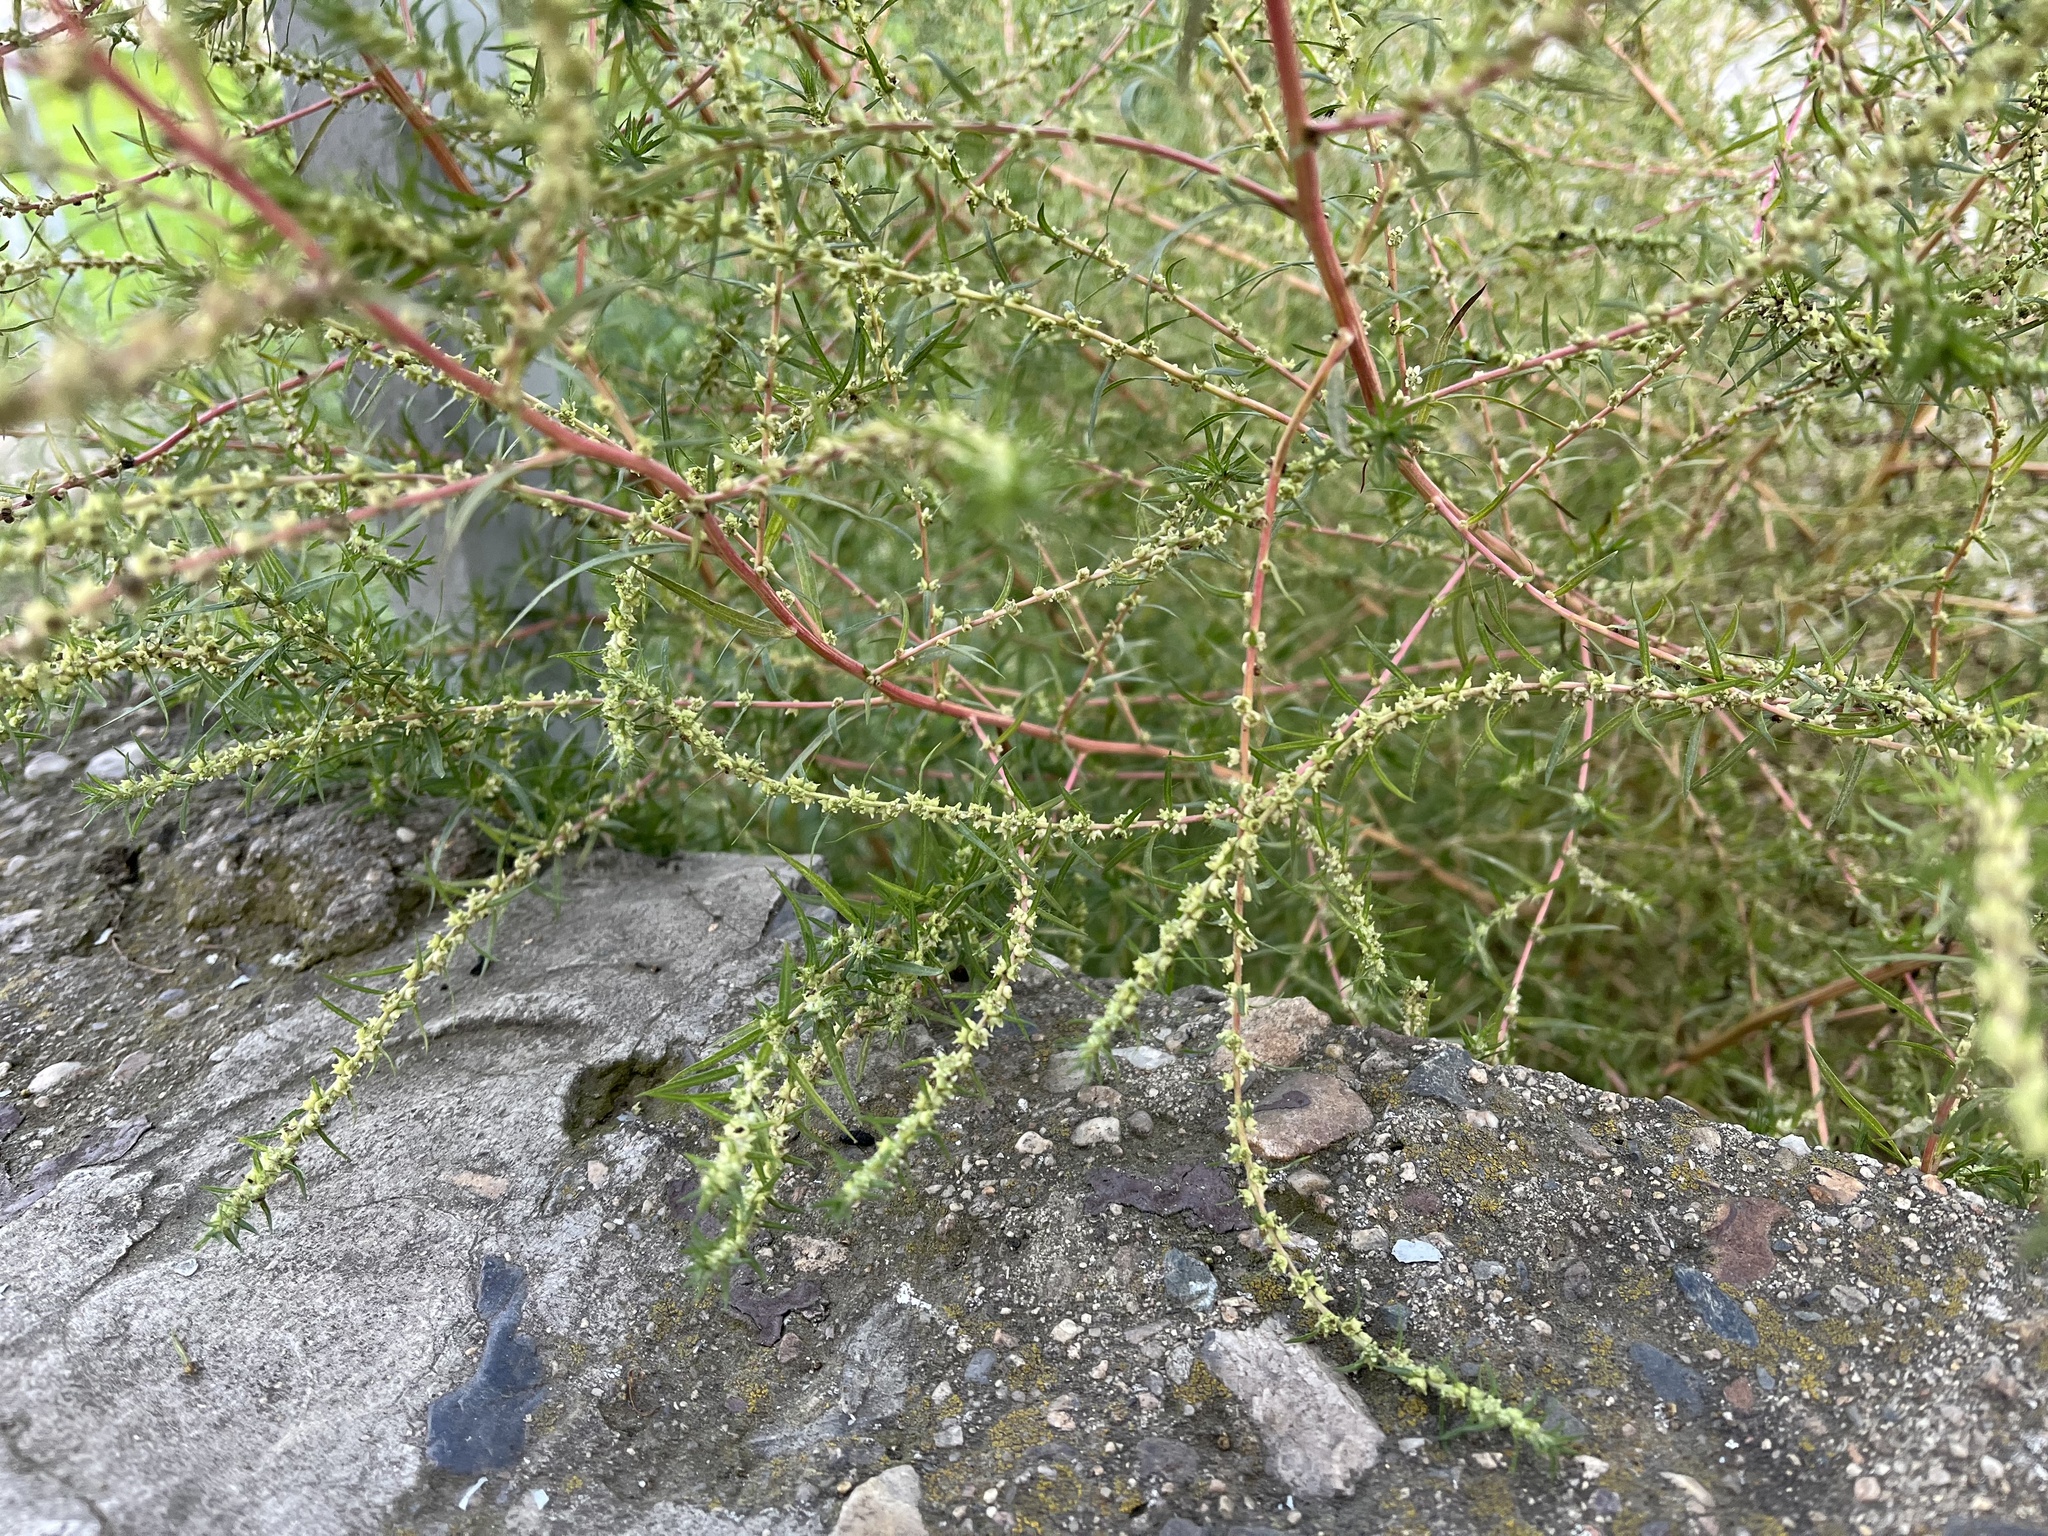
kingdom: Plantae
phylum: Tracheophyta
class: Magnoliopsida
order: Caryophyllales
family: Amaranthaceae
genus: Bassia
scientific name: Bassia scoparia
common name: Belvedere
